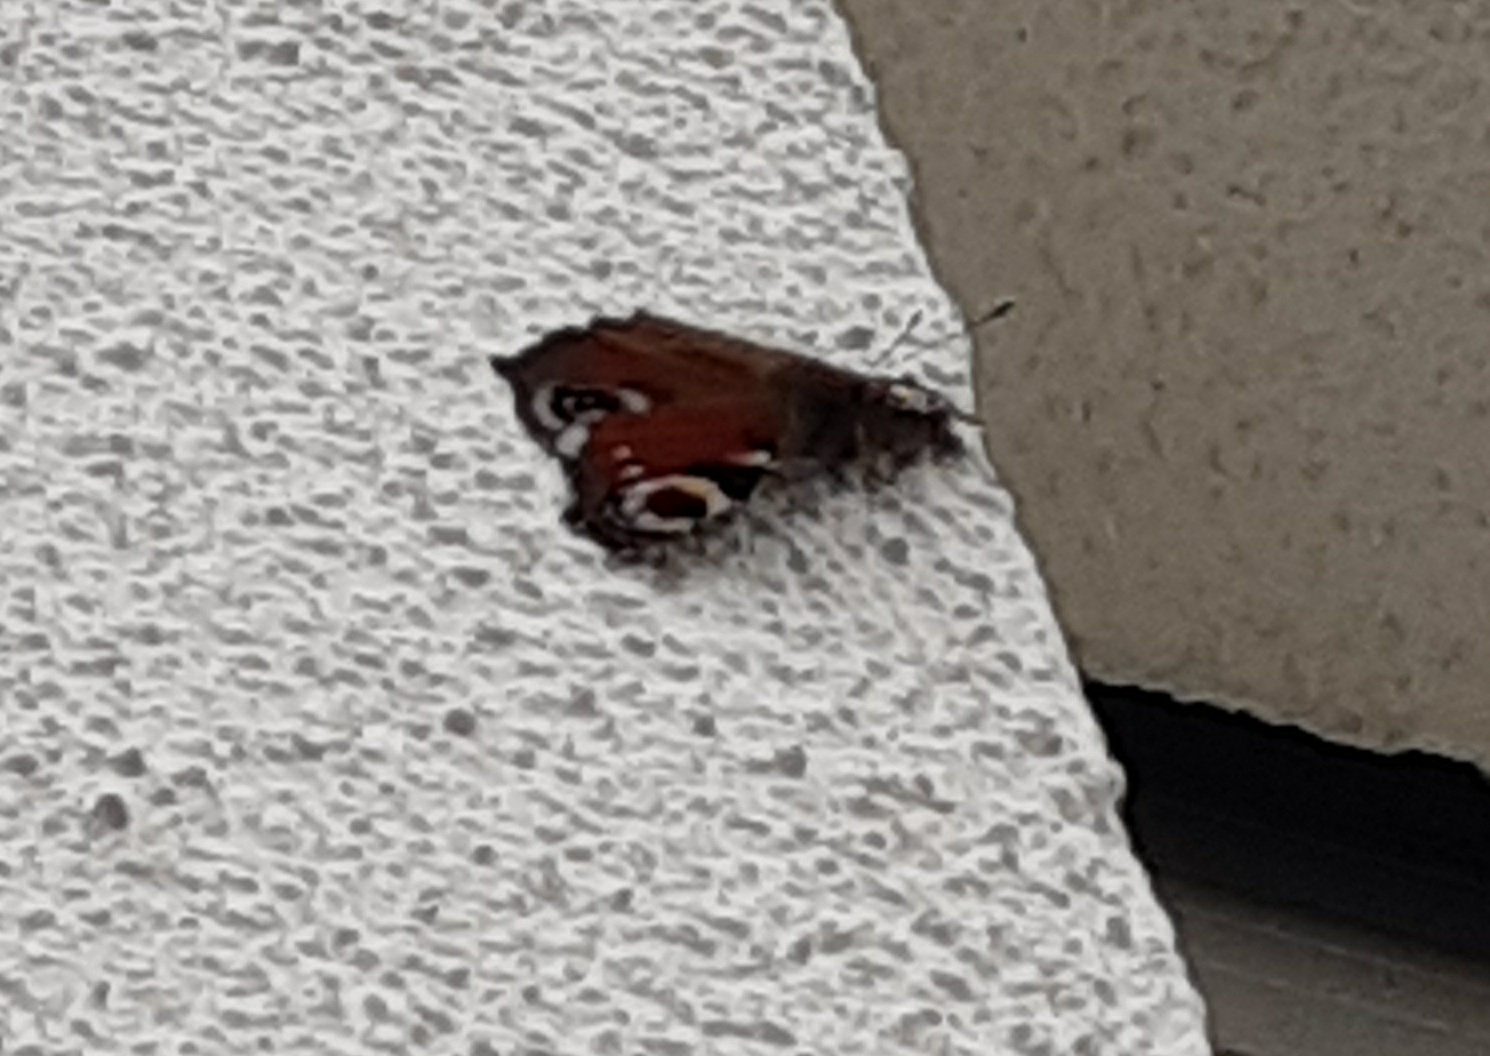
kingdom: Animalia
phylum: Arthropoda
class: Insecta
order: Lepidoptera
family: Nymphalidae
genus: Aglais
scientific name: Aglais io
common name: Peacock
